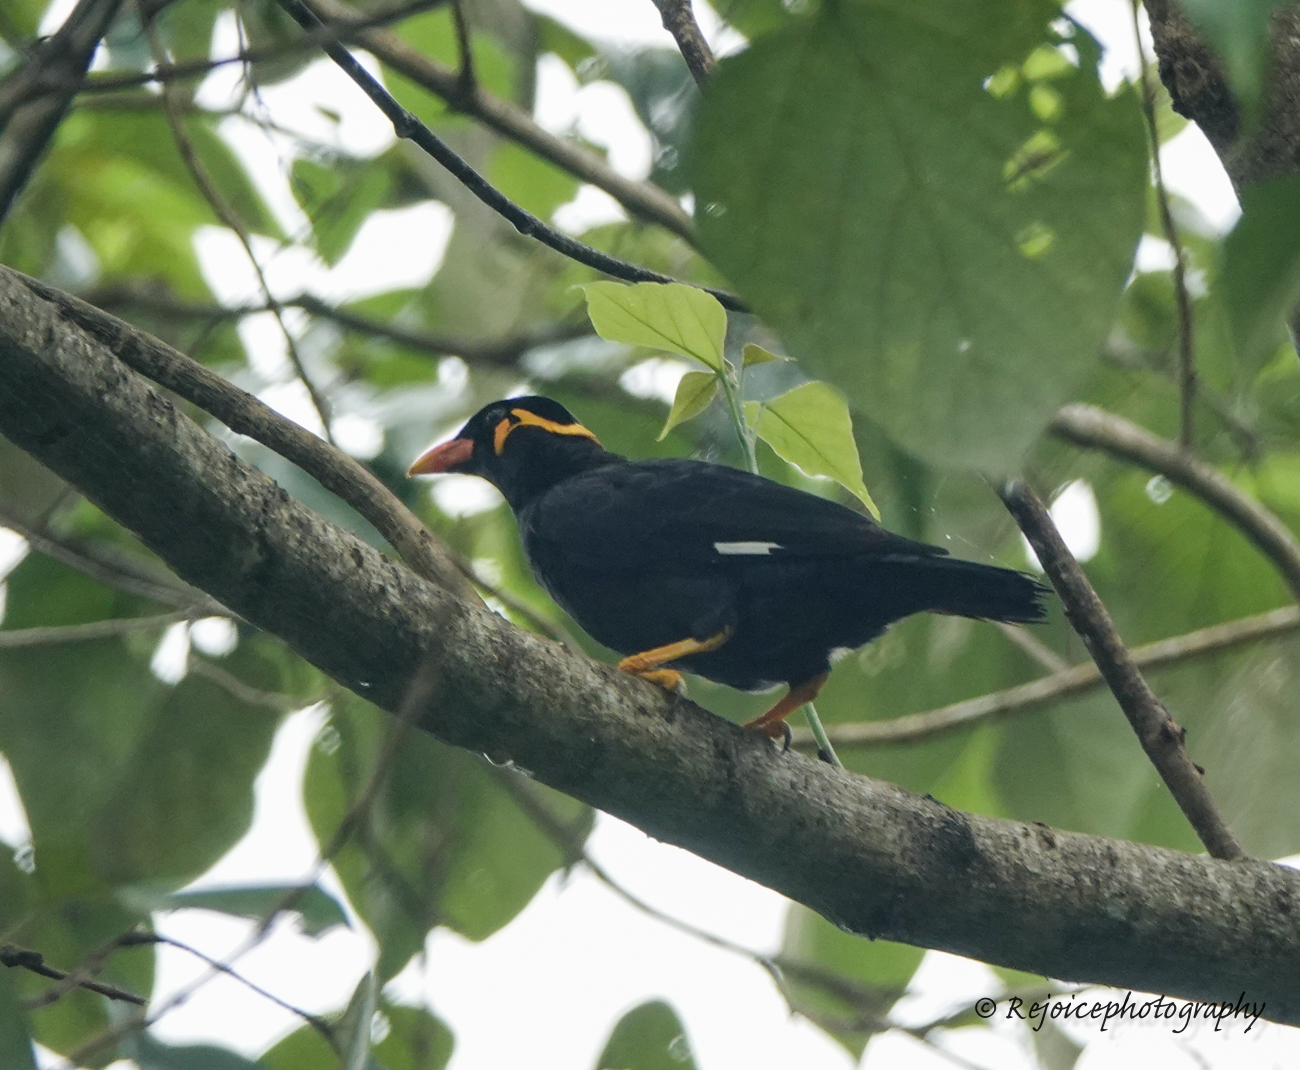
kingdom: Animalia
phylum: Chordata
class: Aves
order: Passeriformes
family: Sturnidae
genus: Gracula
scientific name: Gracula religiosa
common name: Common hill myna
